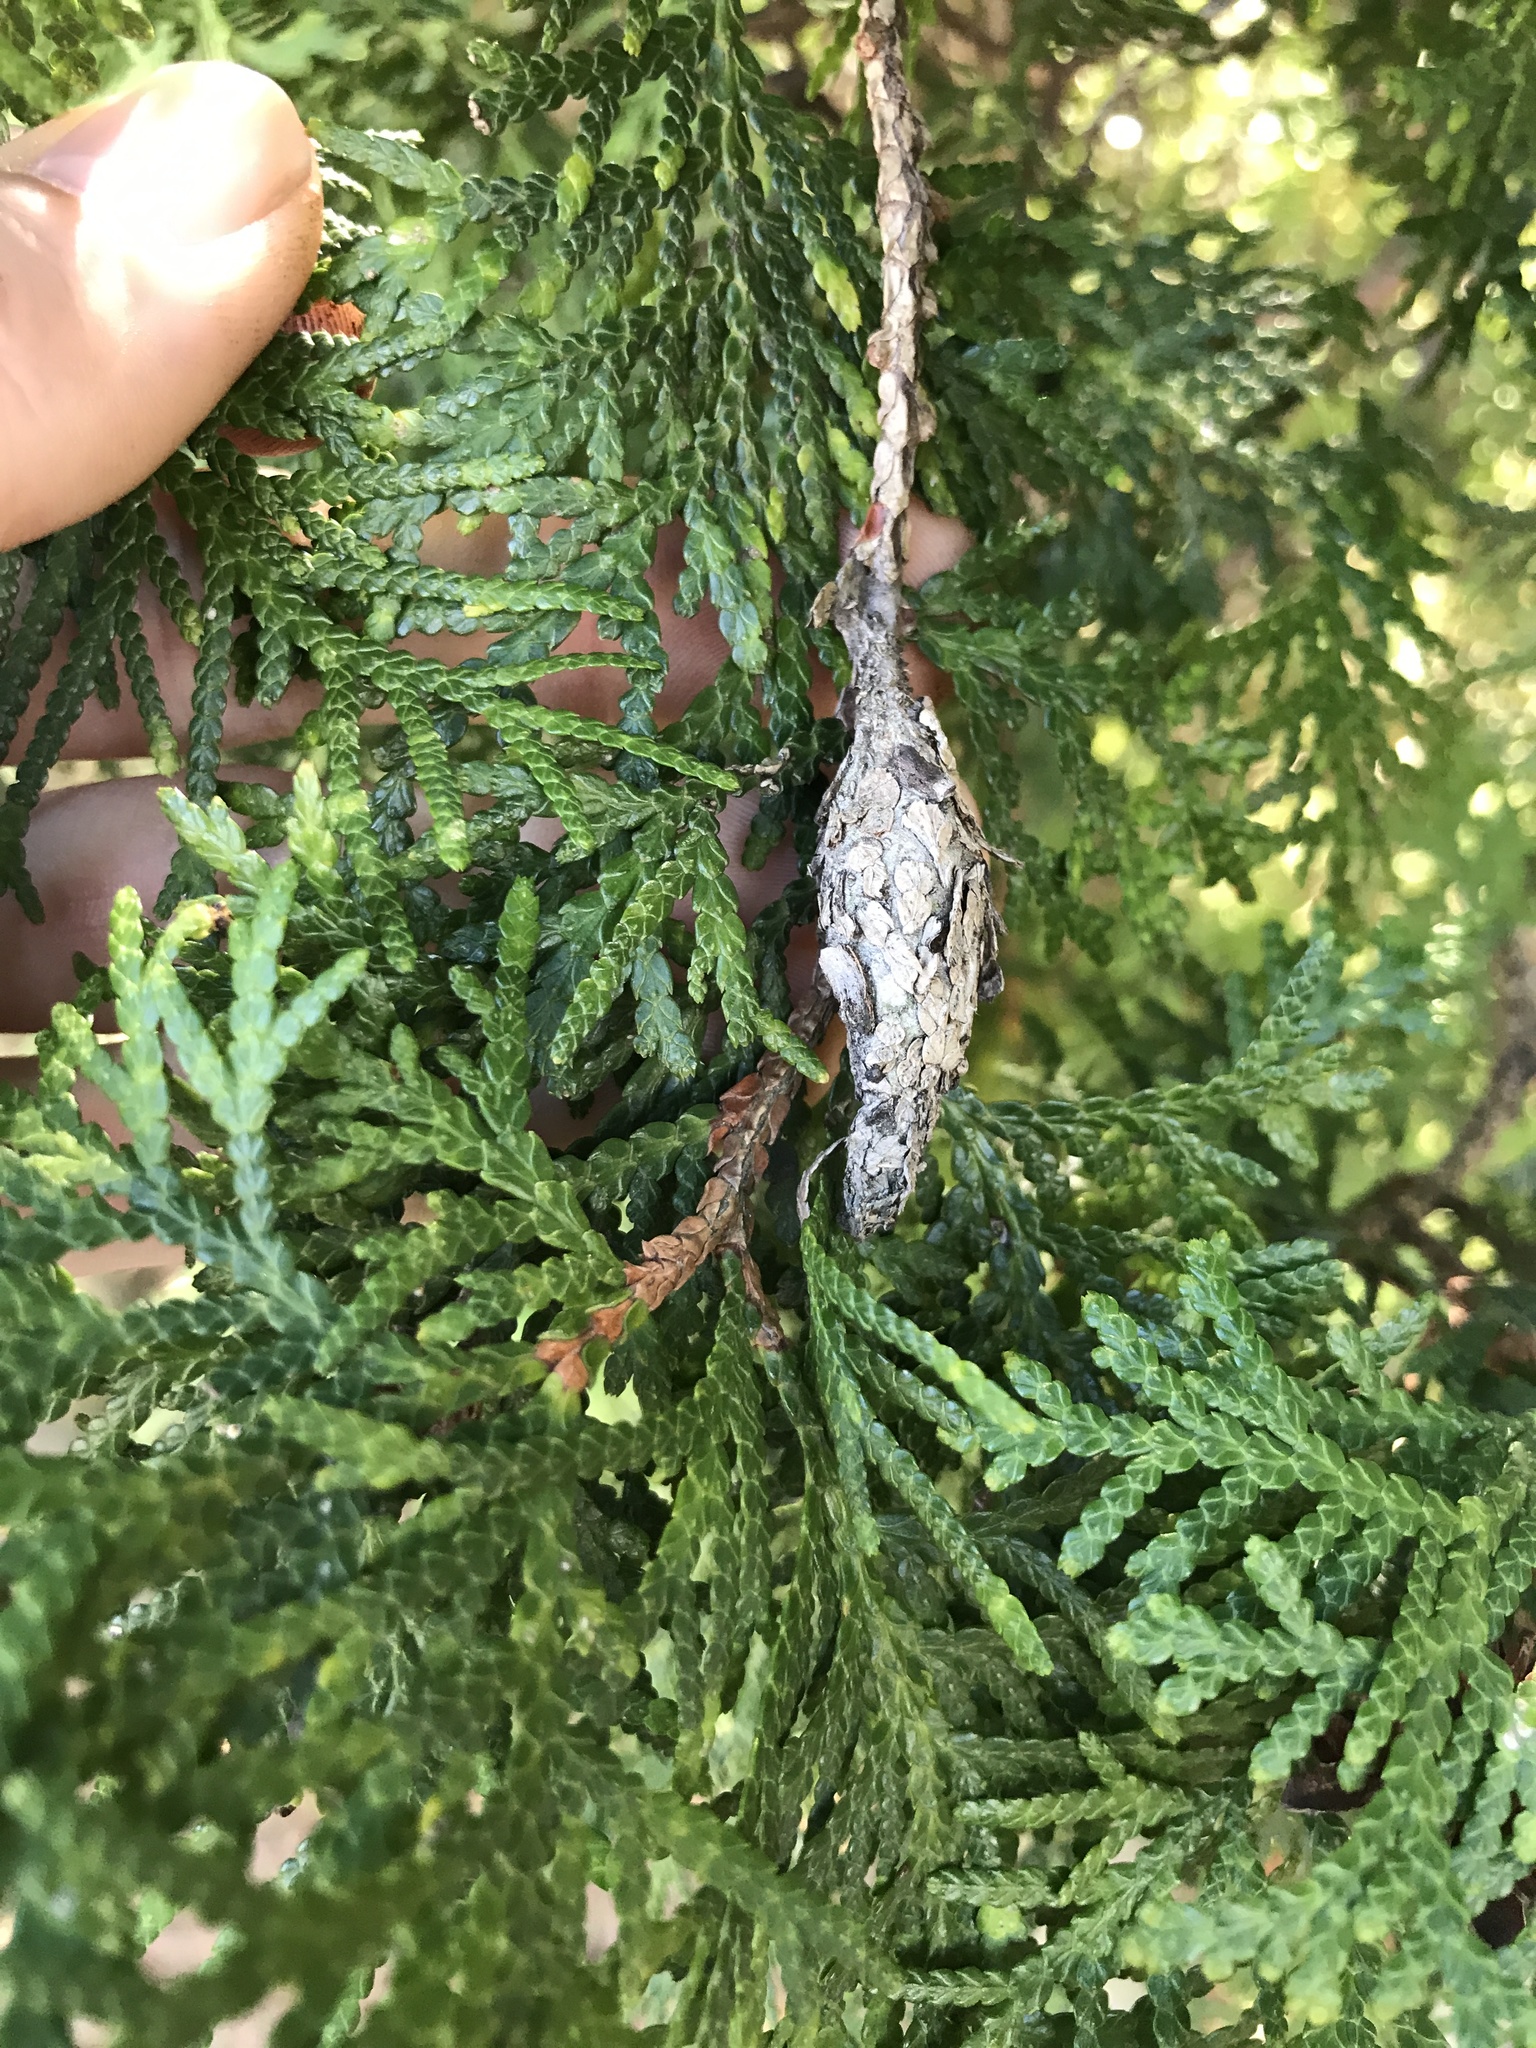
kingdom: Animalia
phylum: Arthropoda
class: Insecta
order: Lepidoptera
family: Psychidae
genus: Thyridopteryx
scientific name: Thyridopteryx ephemeraeformis
